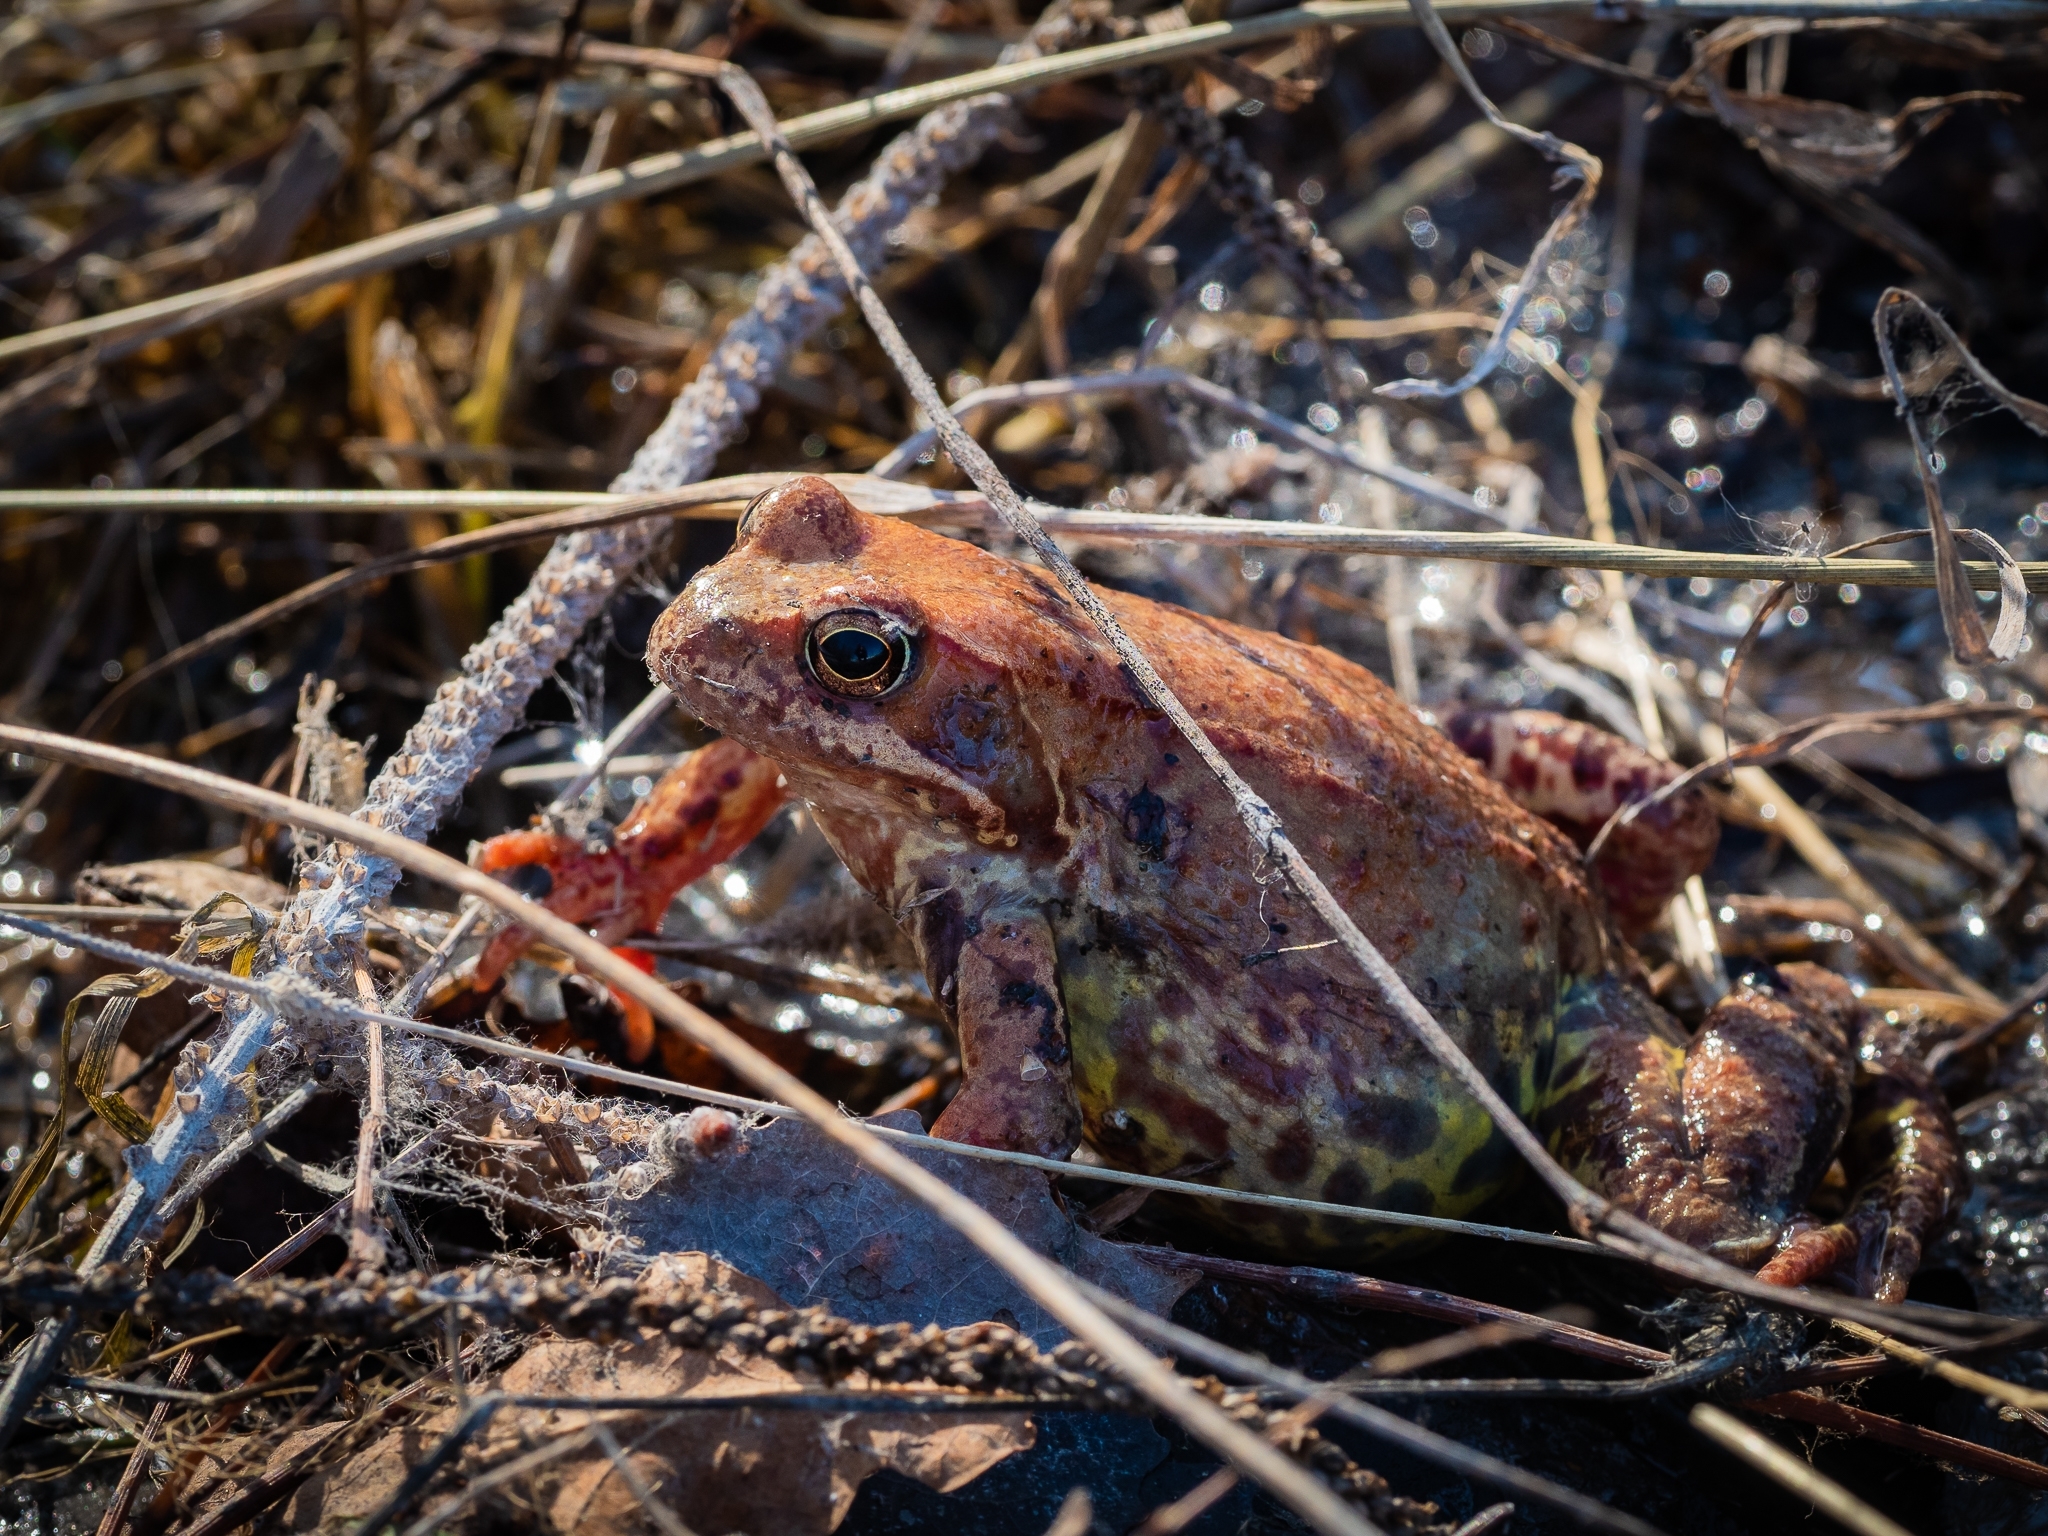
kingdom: Animalia
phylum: Chordata
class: Amphibia
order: Anura
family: Ranidae
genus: Rana
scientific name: Rana temporaria
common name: Common frog
